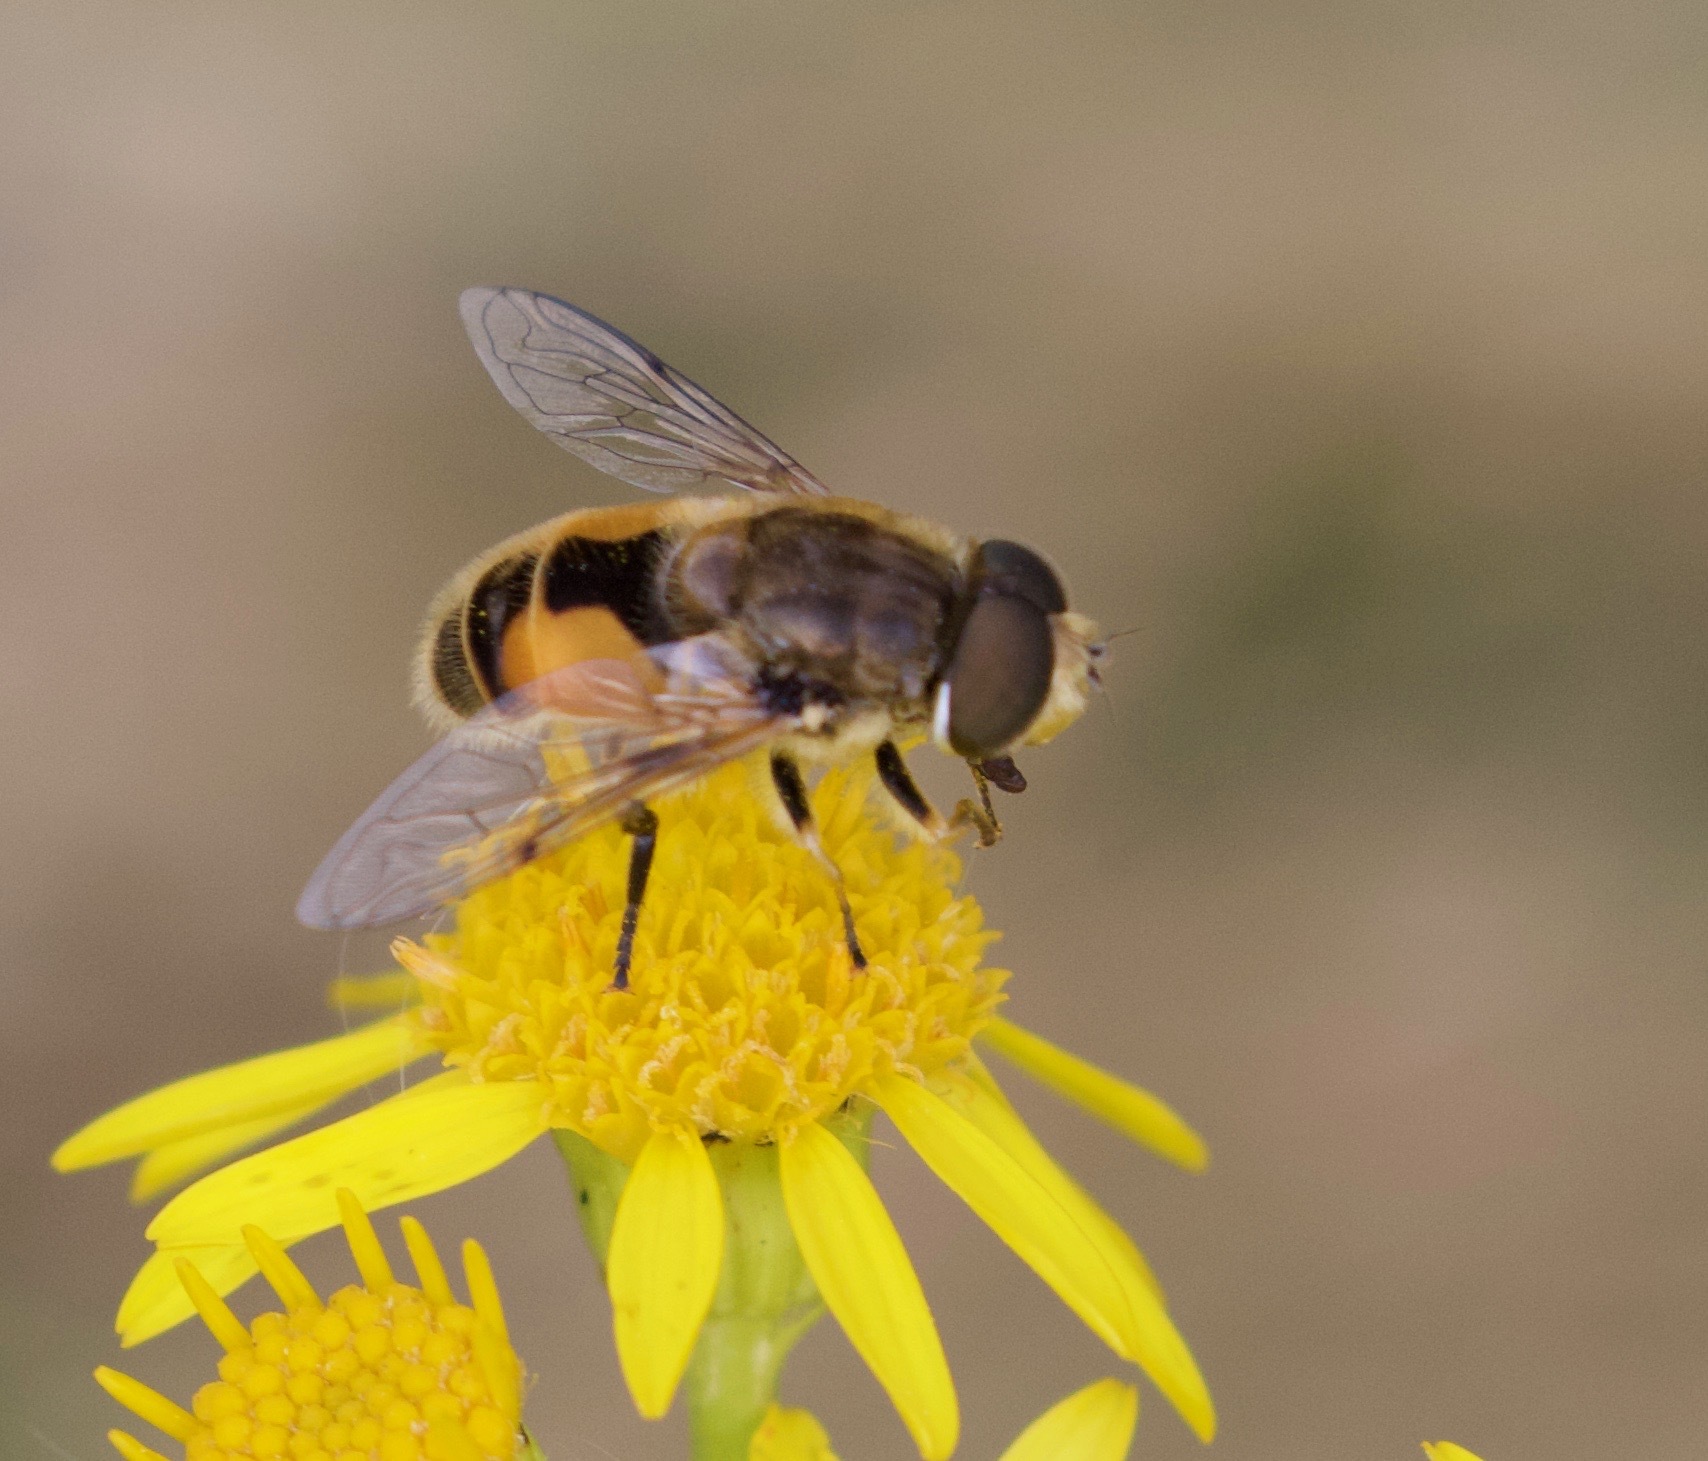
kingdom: Animalia
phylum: Arthropoda
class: Insecta
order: Diptera
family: Syrphidae
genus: Eristalis
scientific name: Eristalis arbustorum
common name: Hover fly
